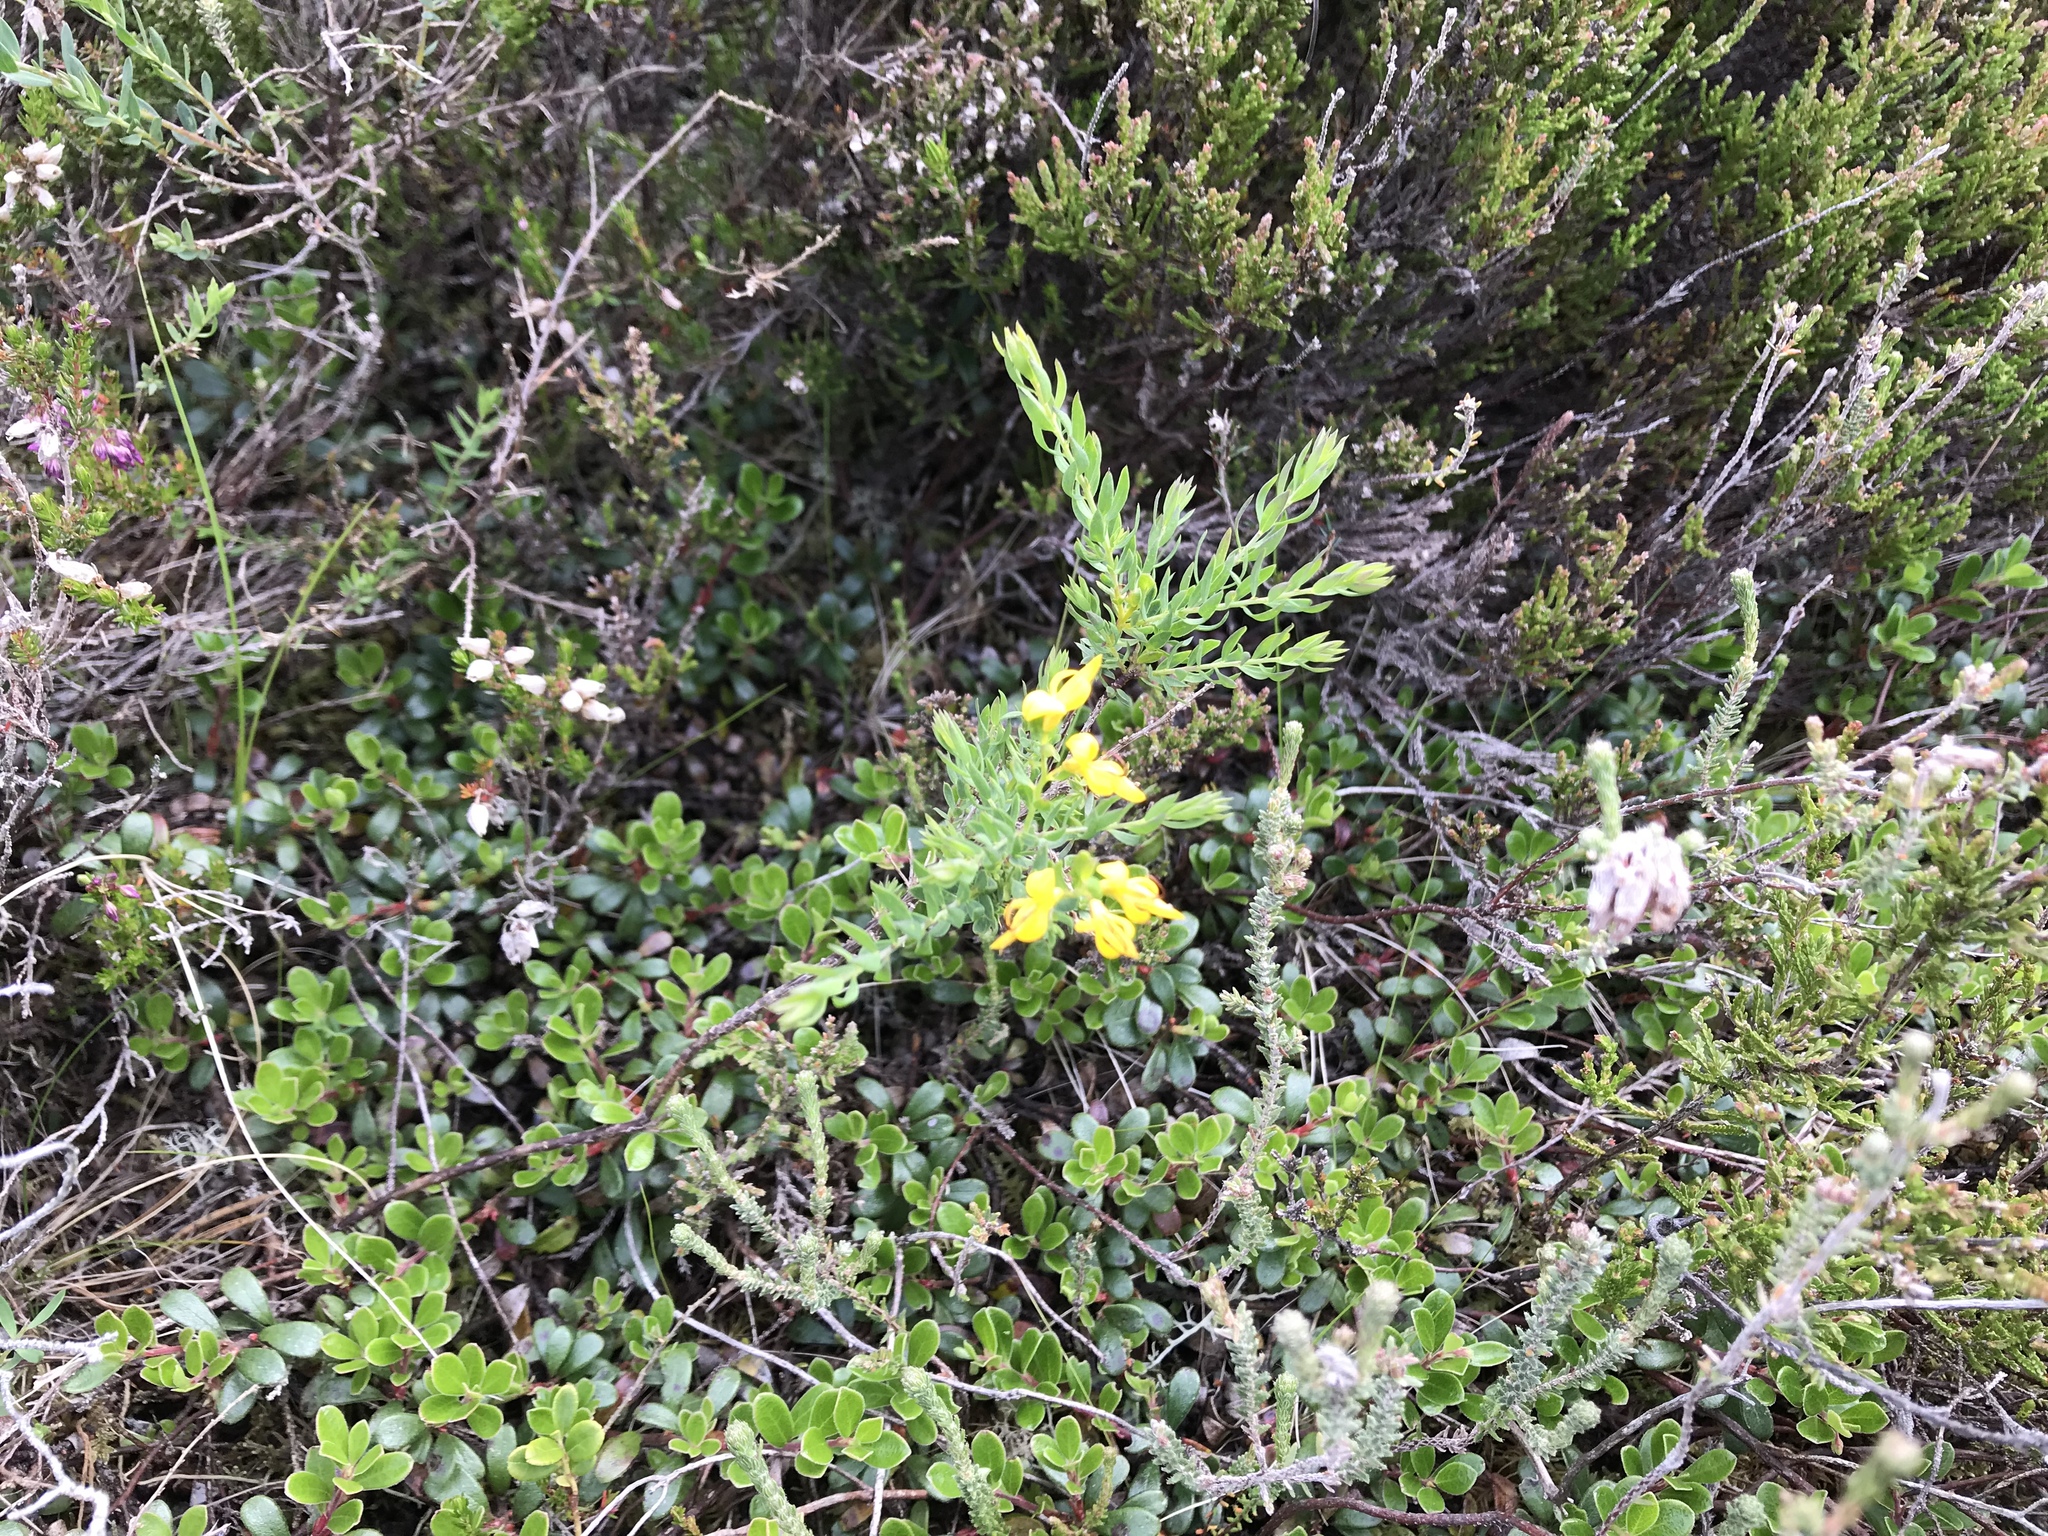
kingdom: Plantae
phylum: Tracheophyta
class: Magnoliopsida
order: Fabales
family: Fabaceae
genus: Genista
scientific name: Genista anglica
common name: Petty whin
